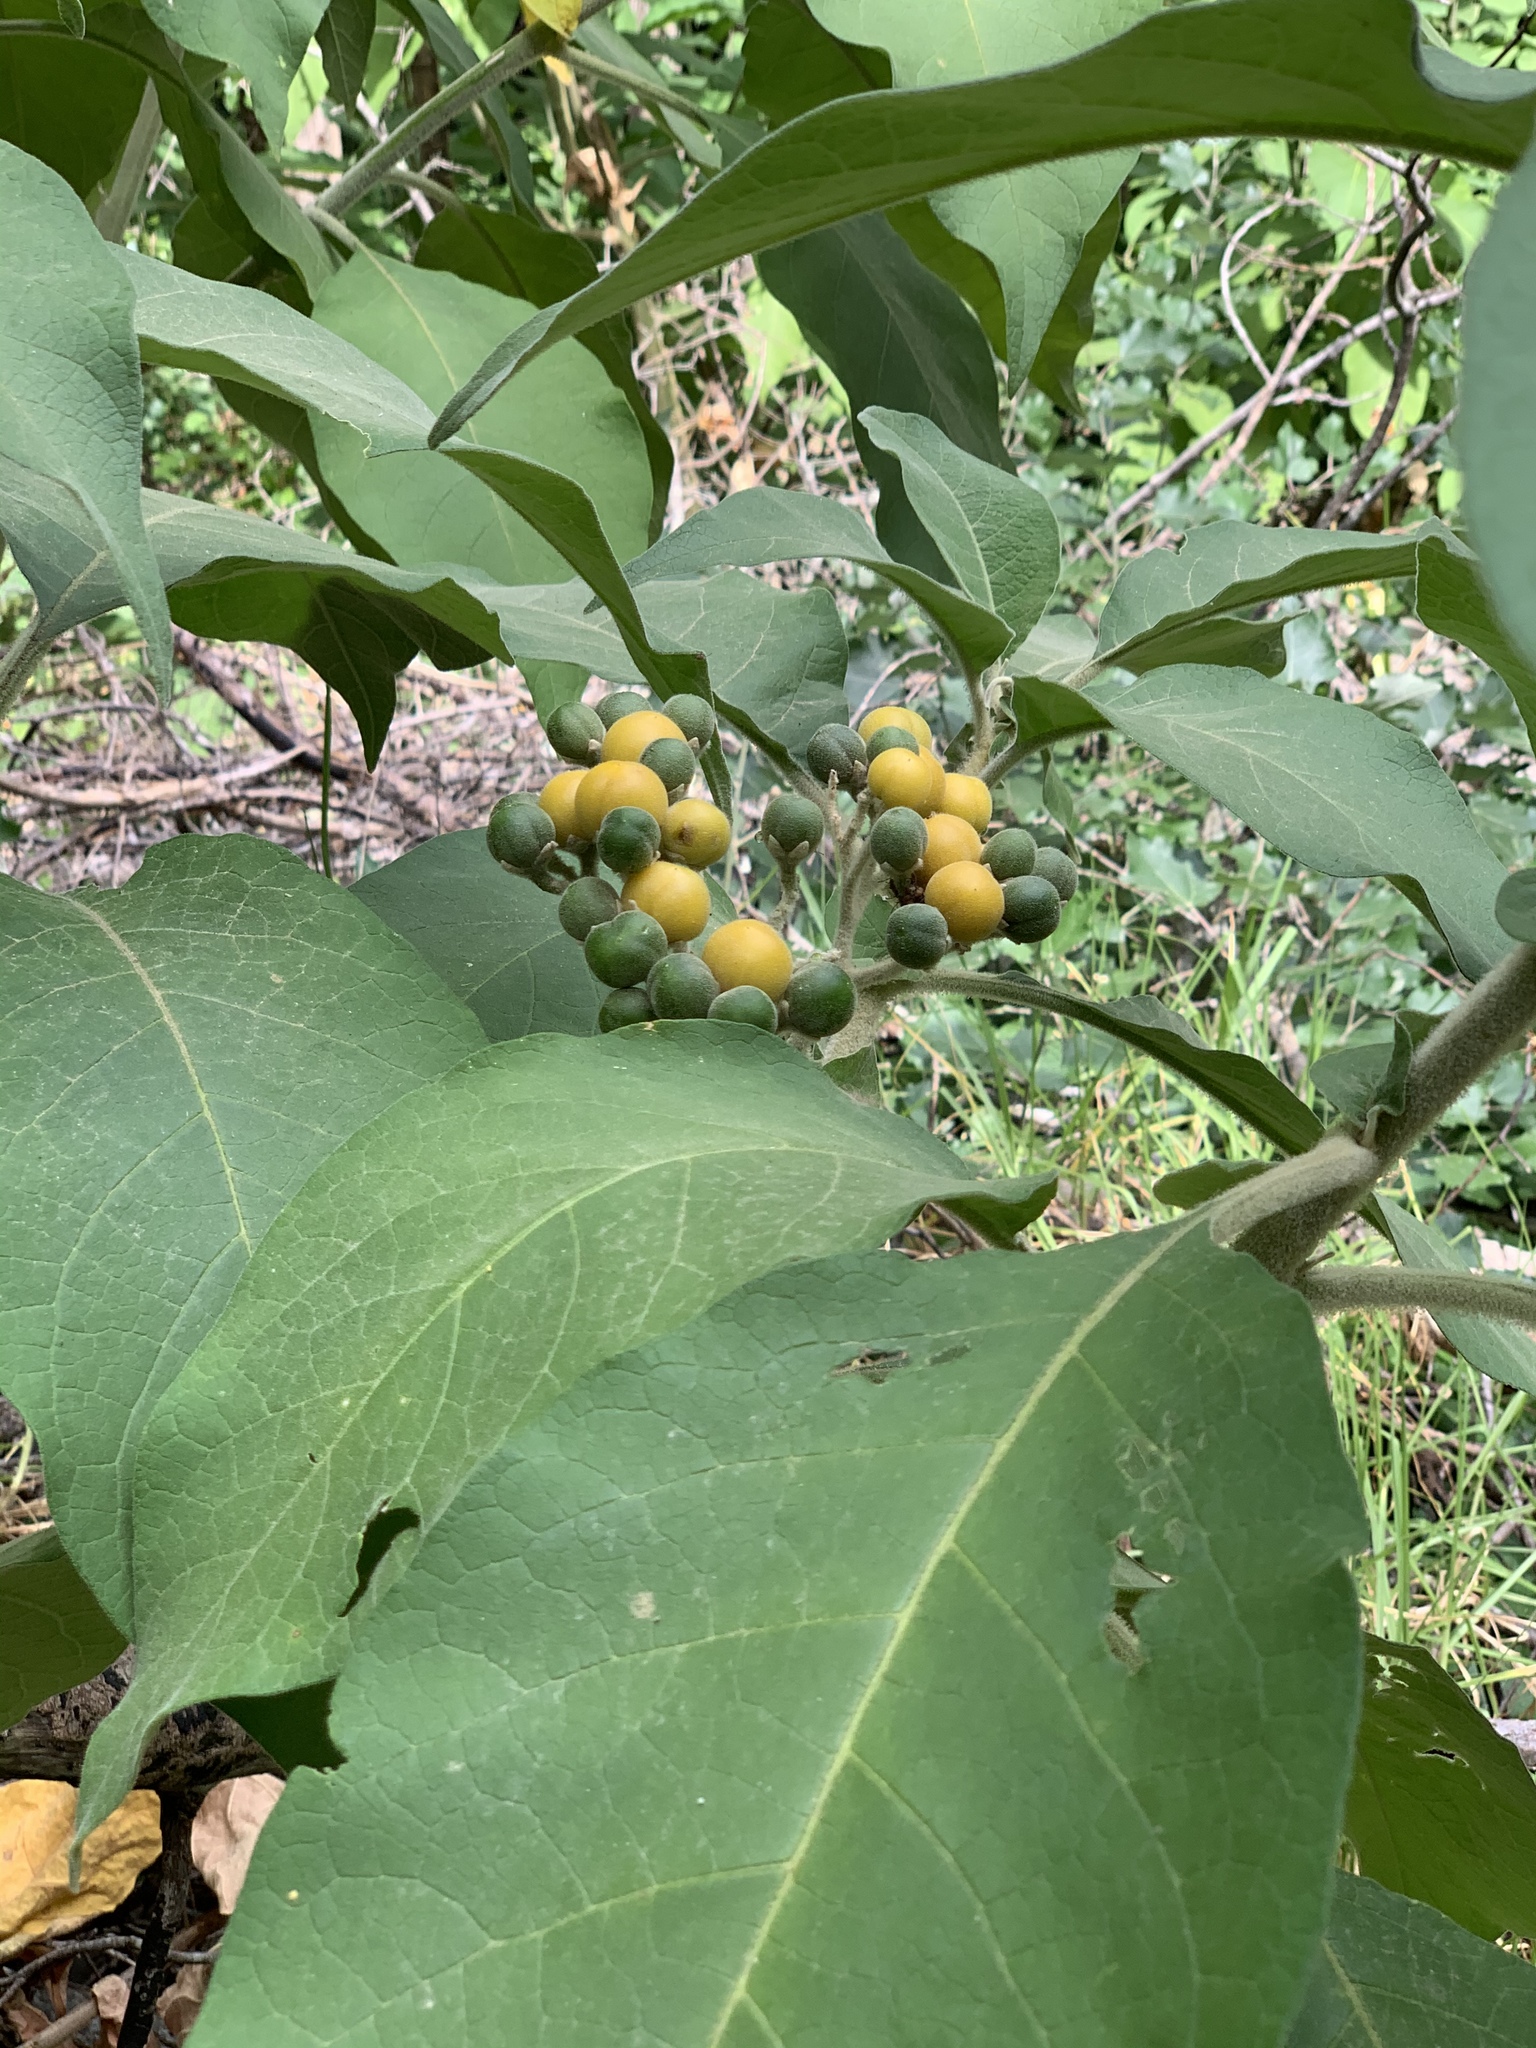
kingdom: Plantae
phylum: Tracheophyta
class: Magnoliopsida
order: Solanales
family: Solanaceae
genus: Solanum
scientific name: Solanum mauritianum
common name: Earleaf nightshade
